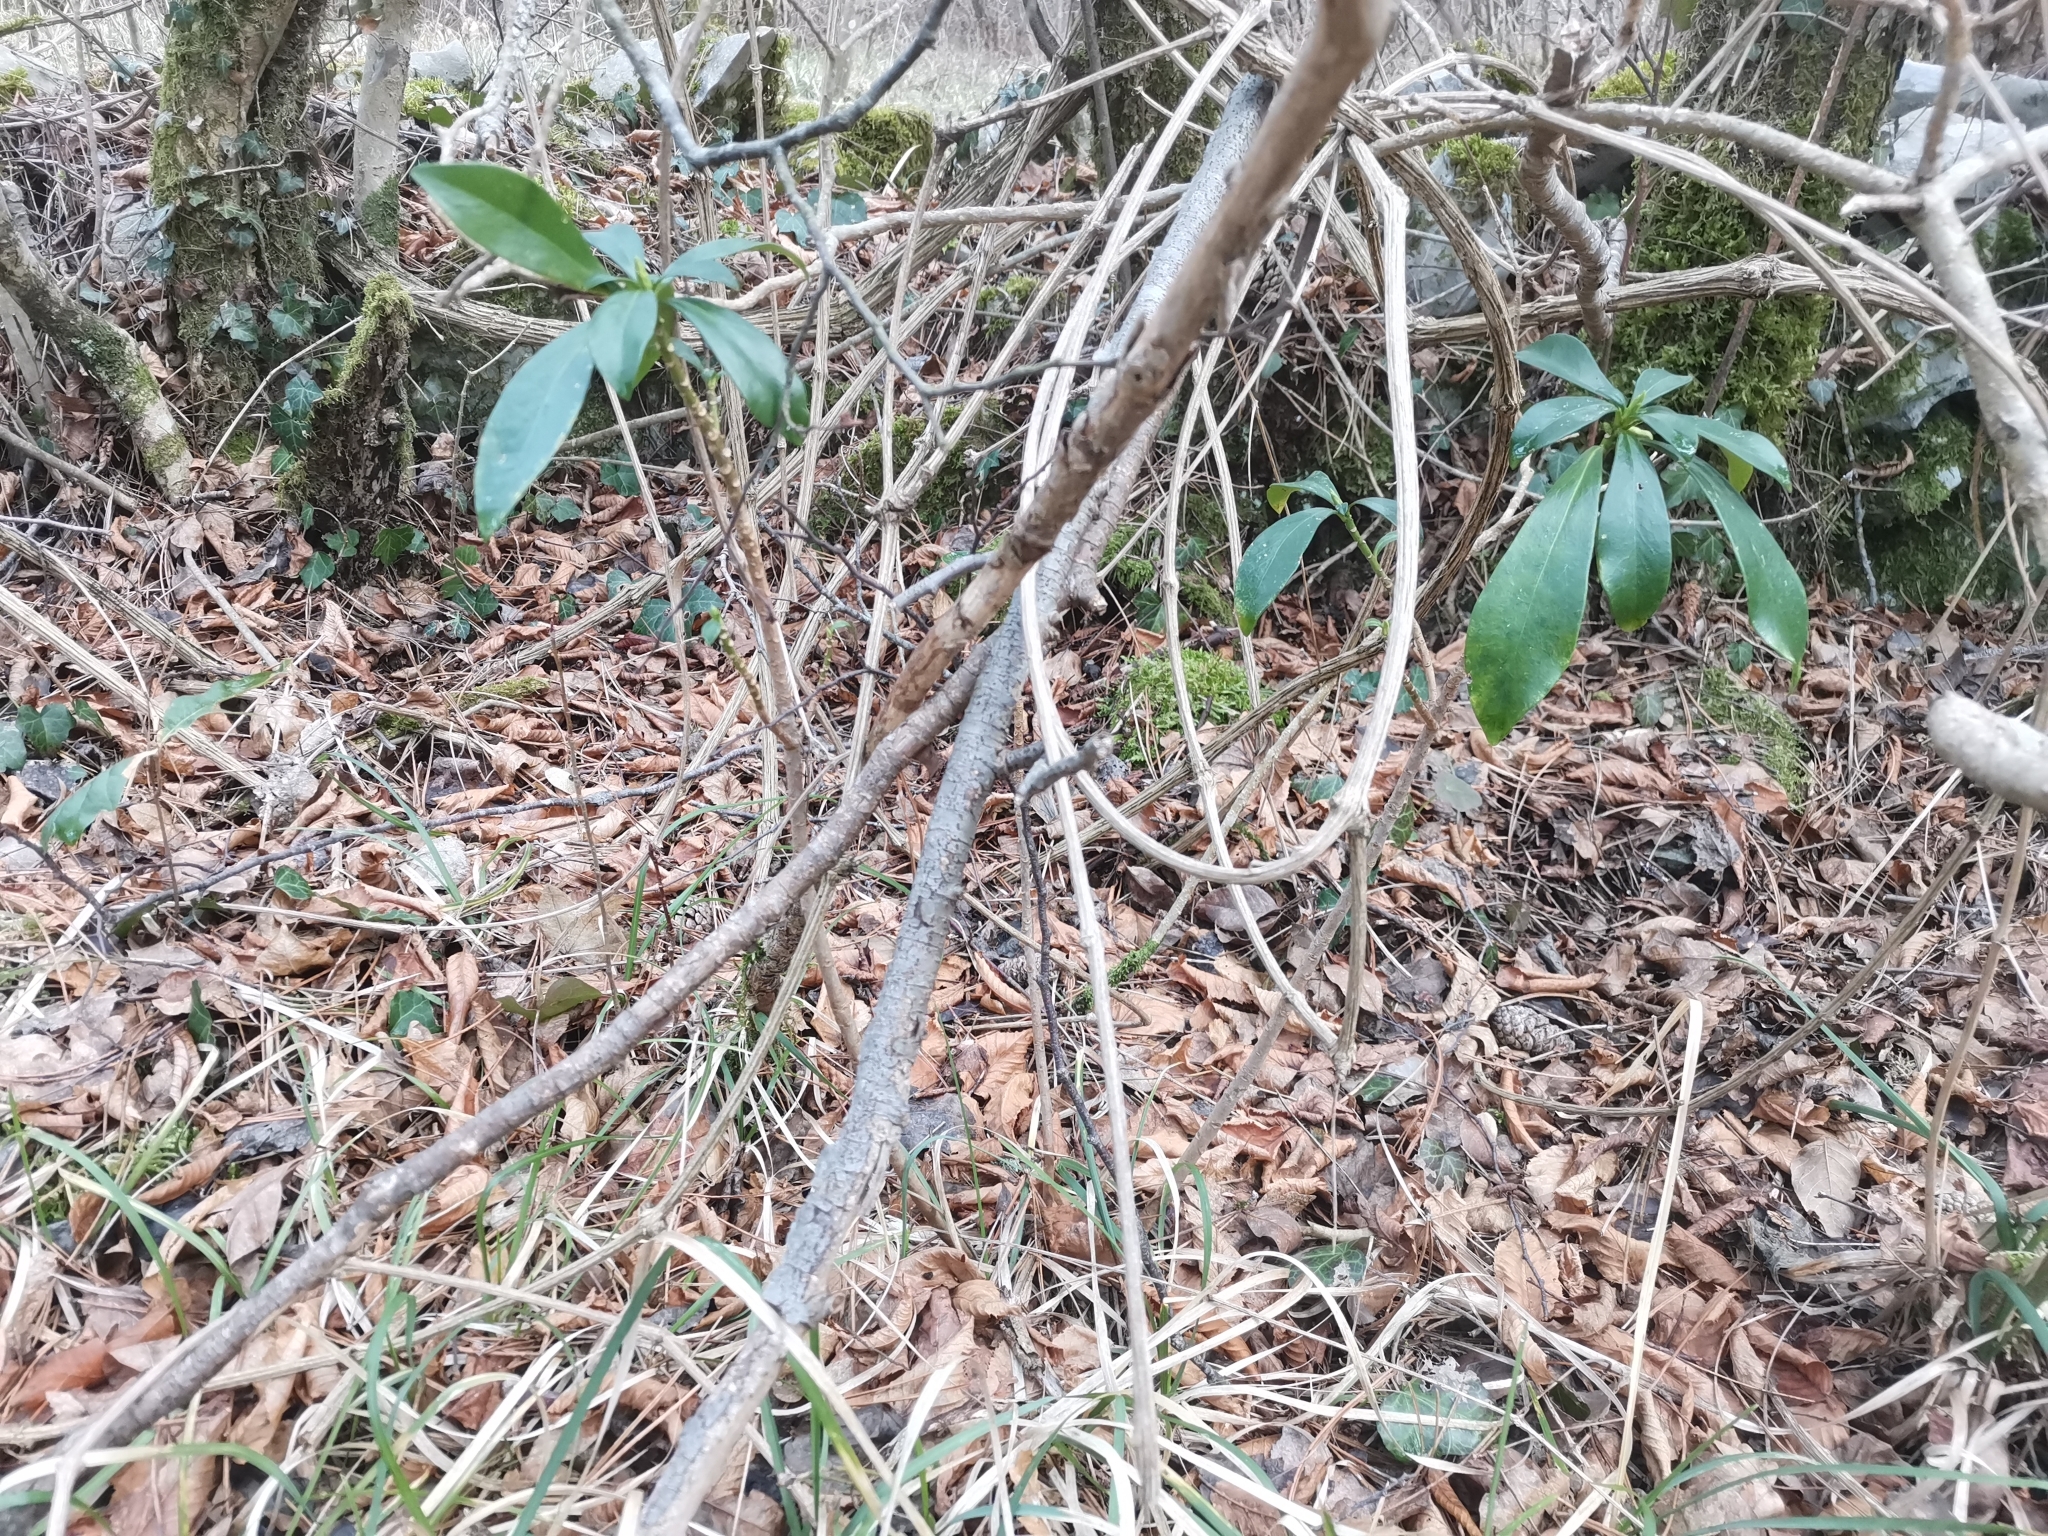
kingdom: Plantae
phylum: Tracheophyta
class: Magnoliopsida
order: Malvales
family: Thymelaeaceae
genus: Daphne
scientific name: Daphne laureola
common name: Spurge-laurel
